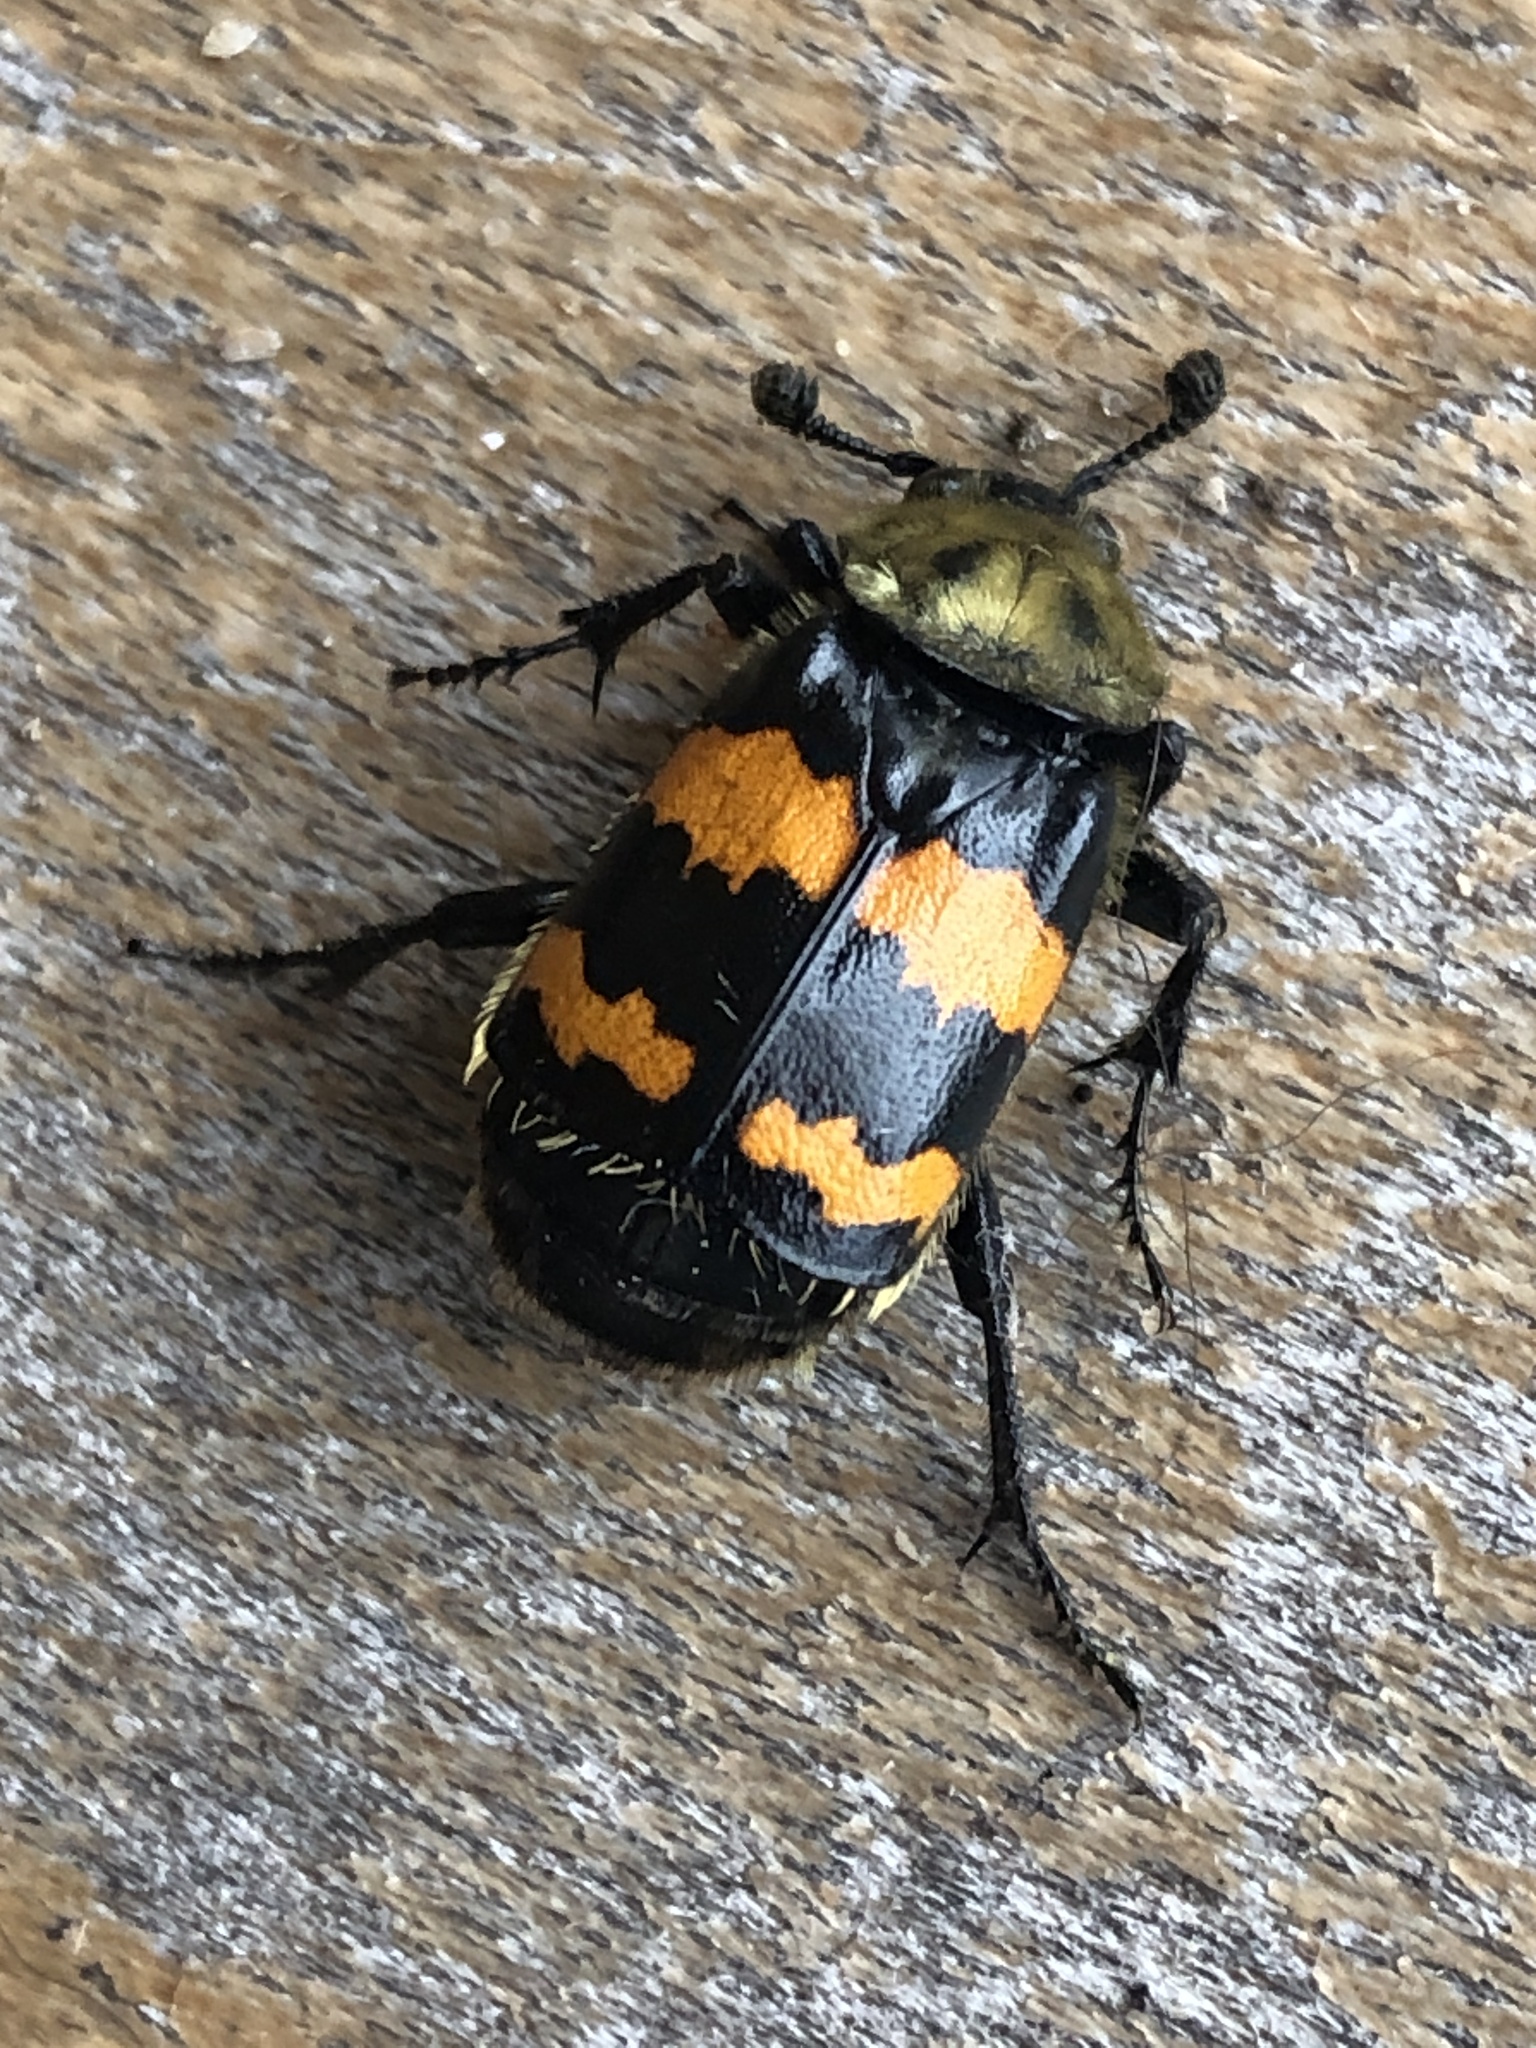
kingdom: Animalia
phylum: Arthropoda
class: Insecta
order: Coleoptera
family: Staphylinidae
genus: Nicrophorus
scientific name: Nicrophorus tomentosus
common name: Tomentose burying beetle
